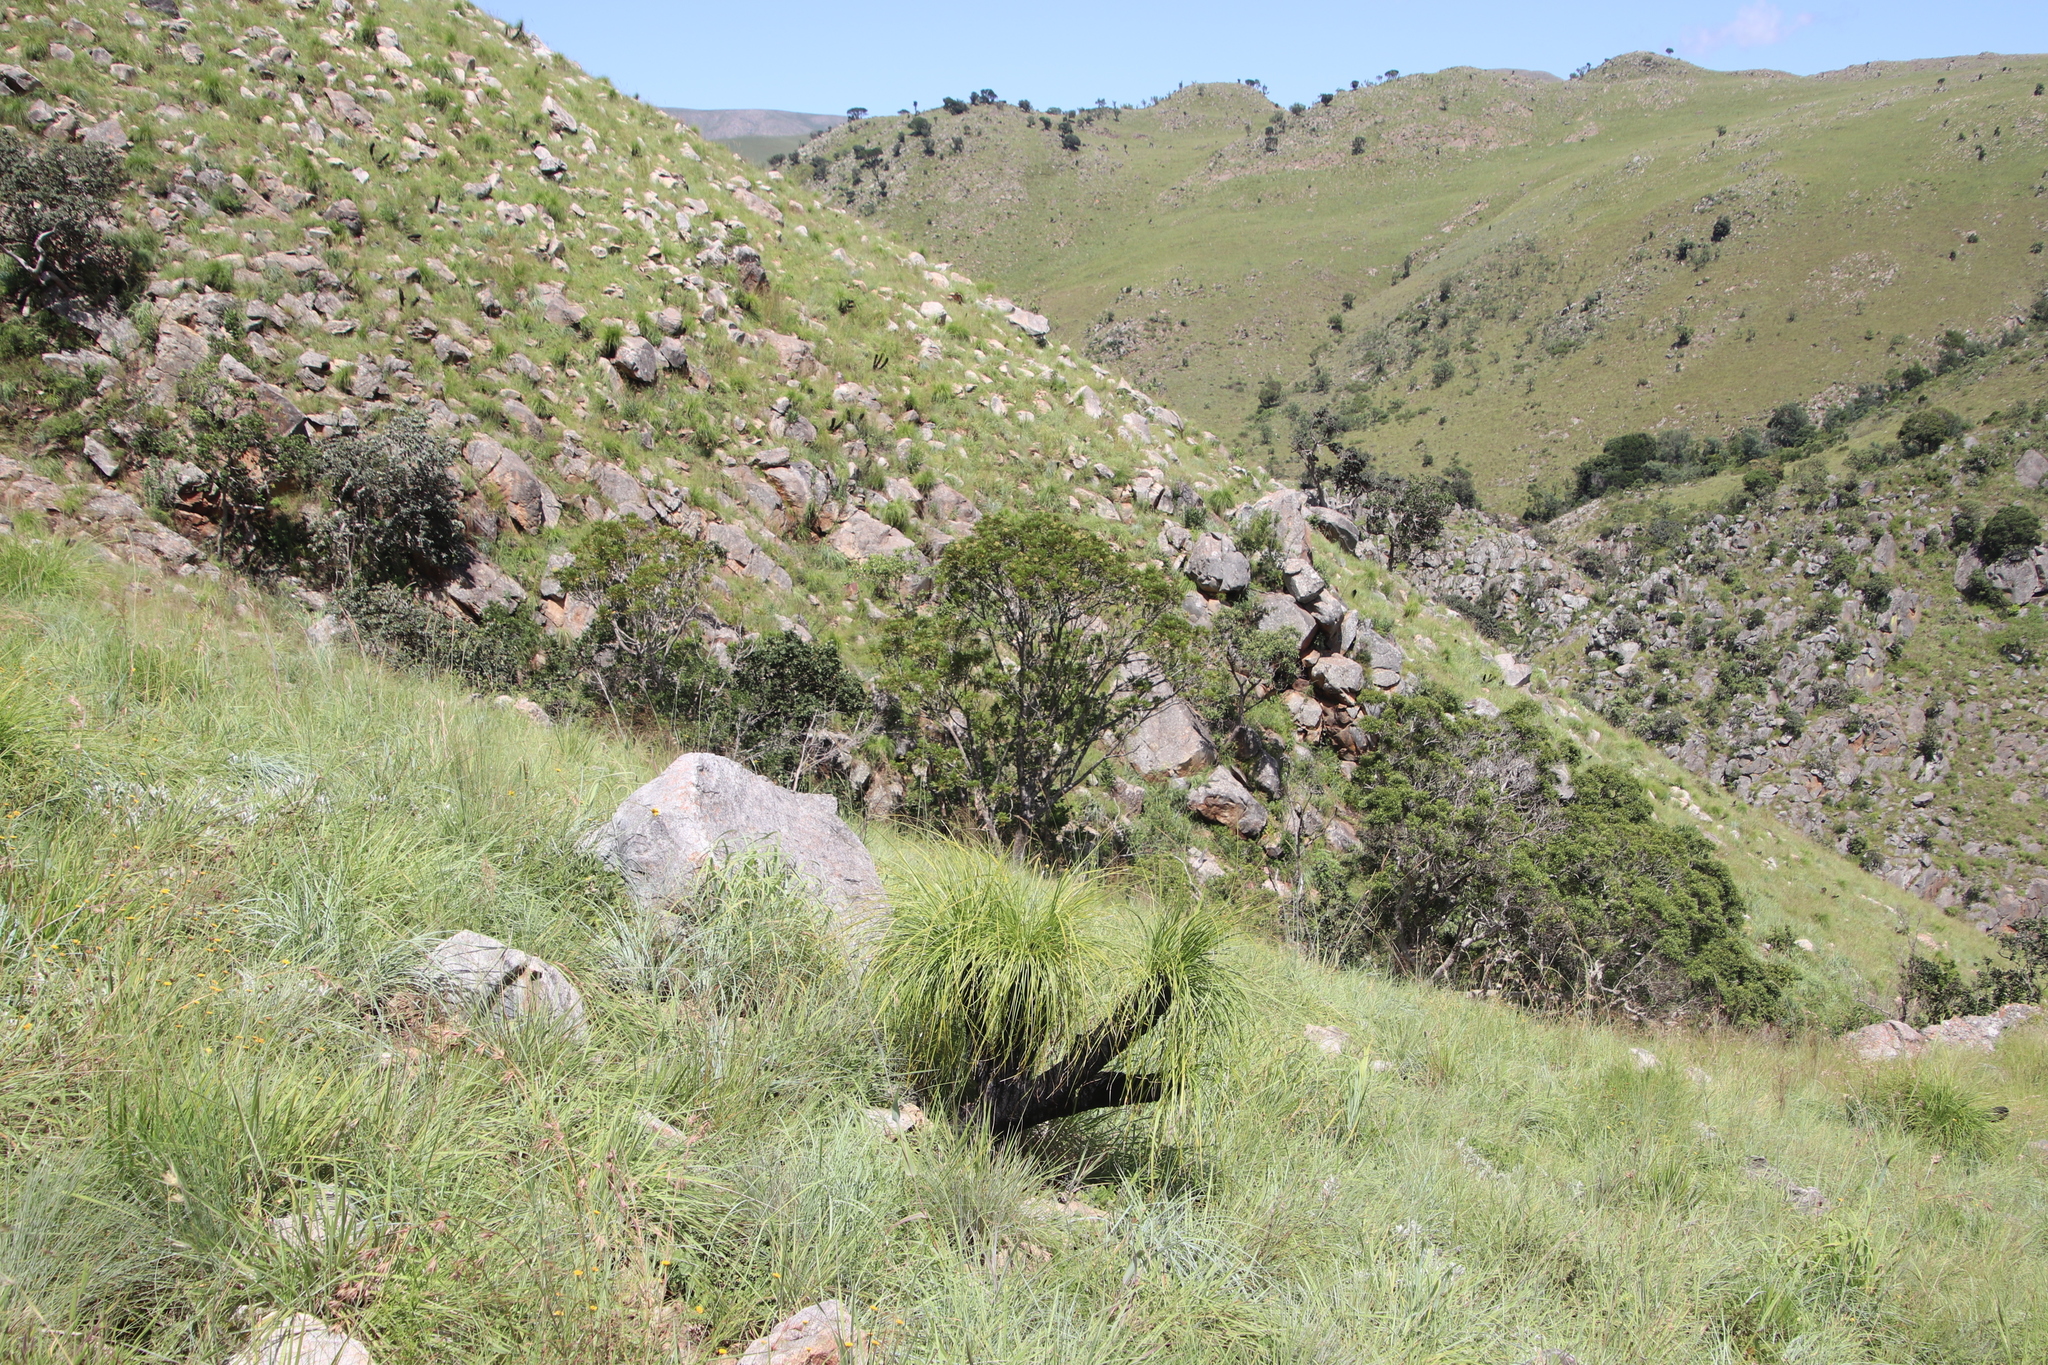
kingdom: Plantae
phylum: Tracheophyta
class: Liliopsida
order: Pandanales
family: Velloziaceae
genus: Xerophyta
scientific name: Xerophyta retinervis
